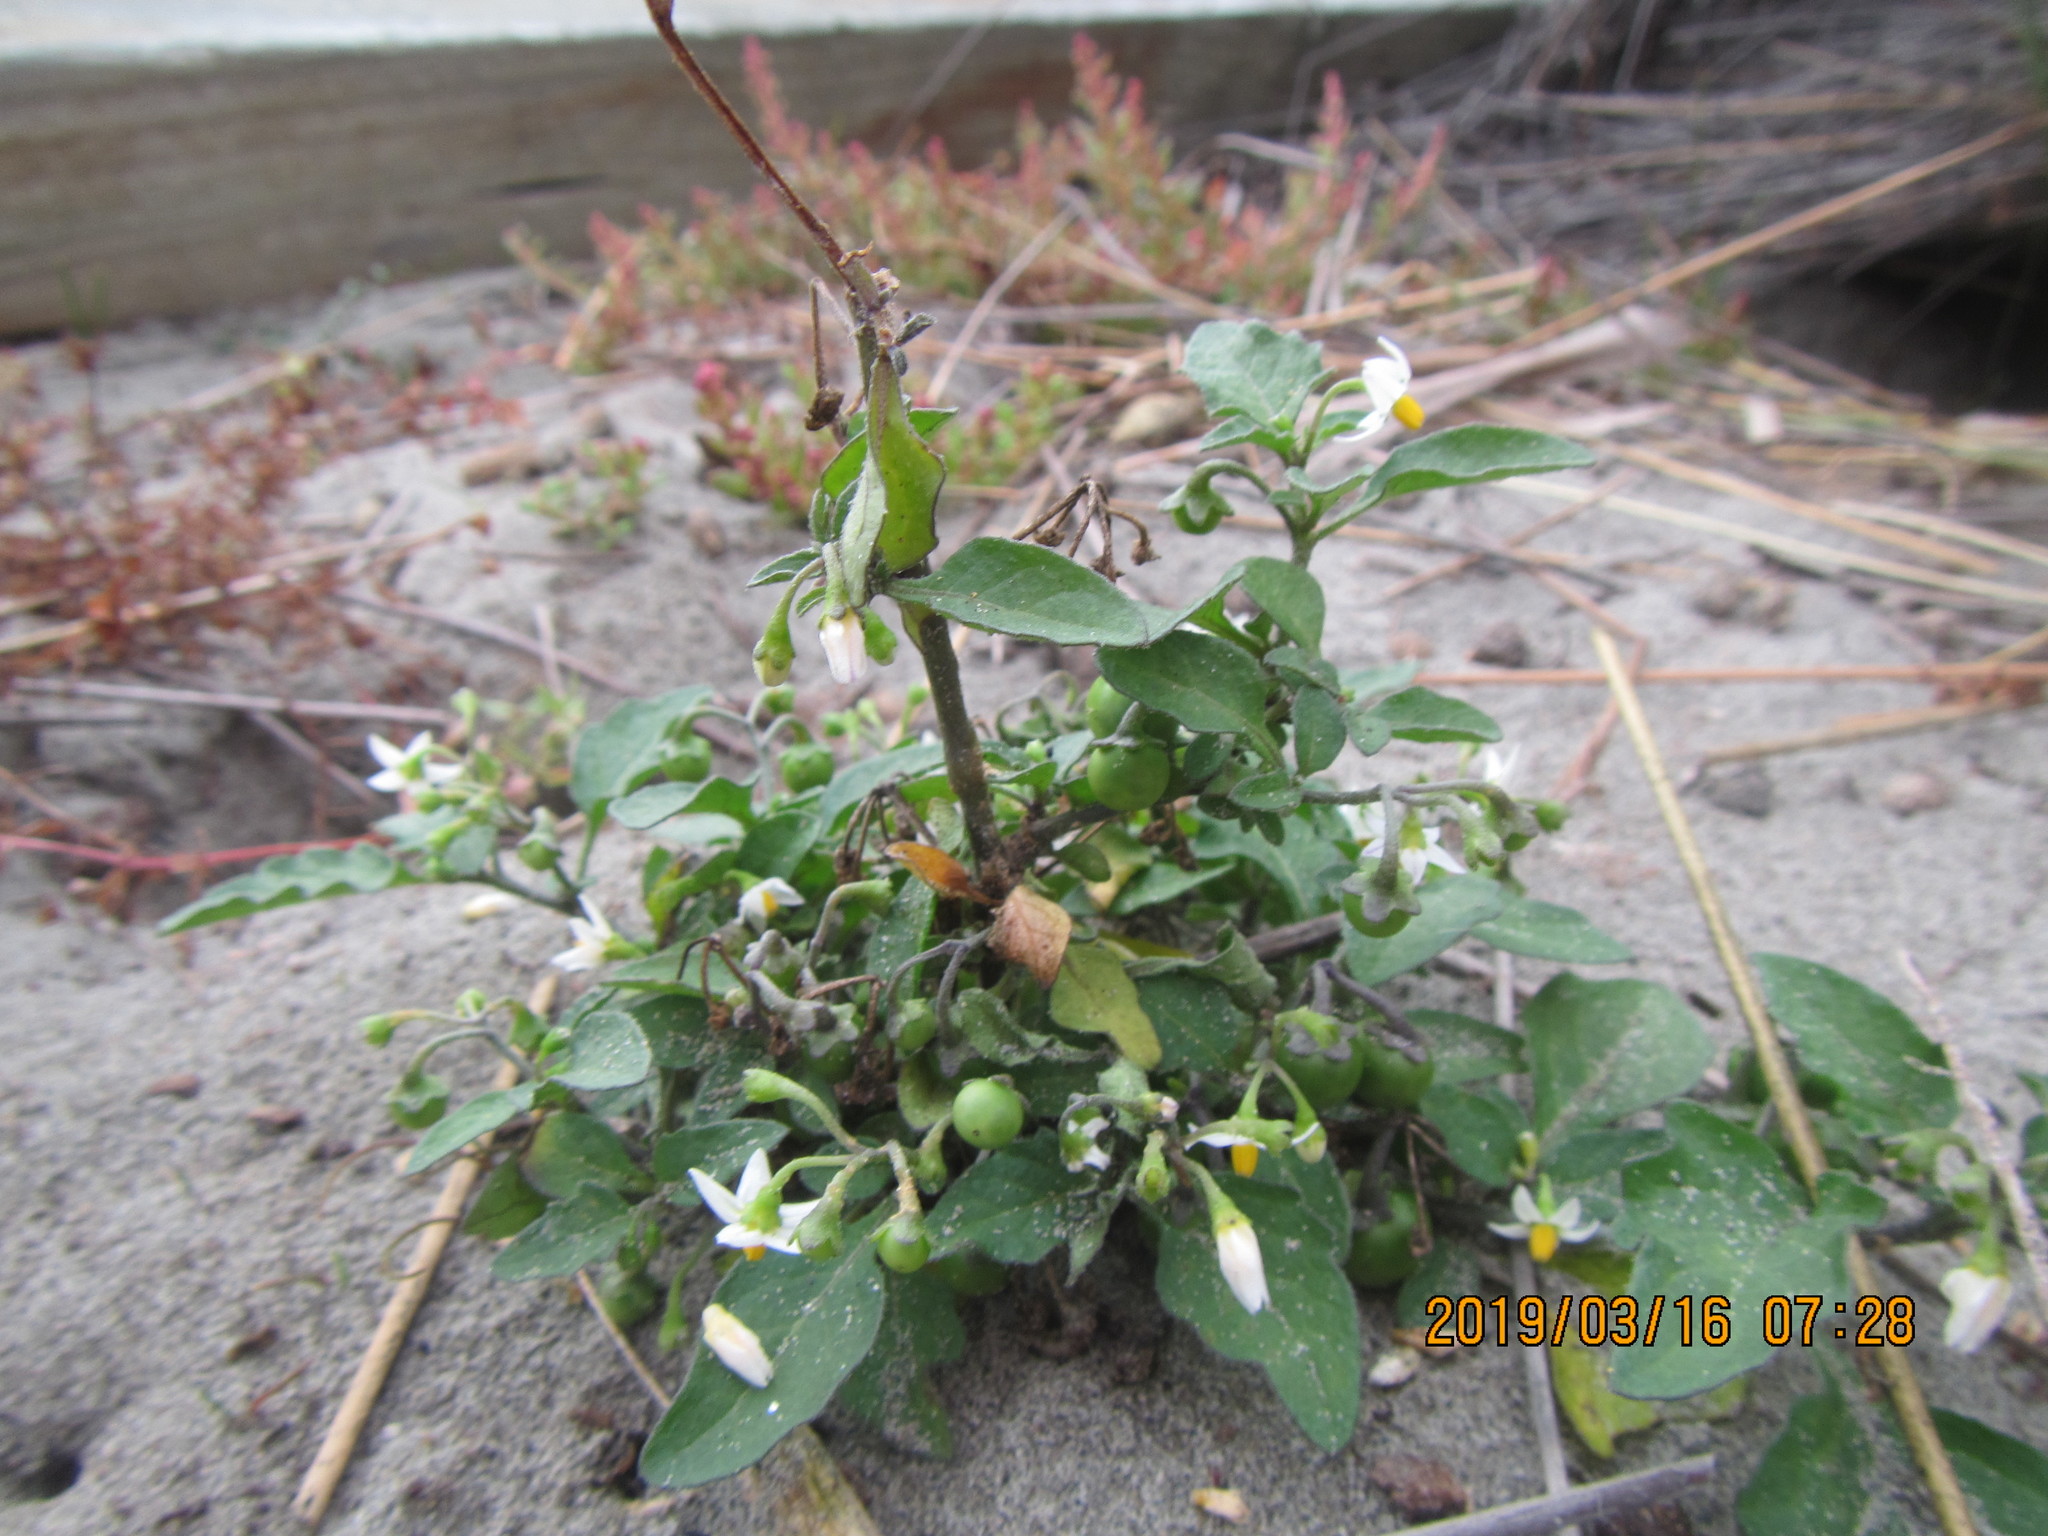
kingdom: Plantae
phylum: Tracheophyta
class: Magnoliopsida
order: Solanales
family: Solanaceae
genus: Solanum
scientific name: Solanum nigrum
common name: Black nightshade
